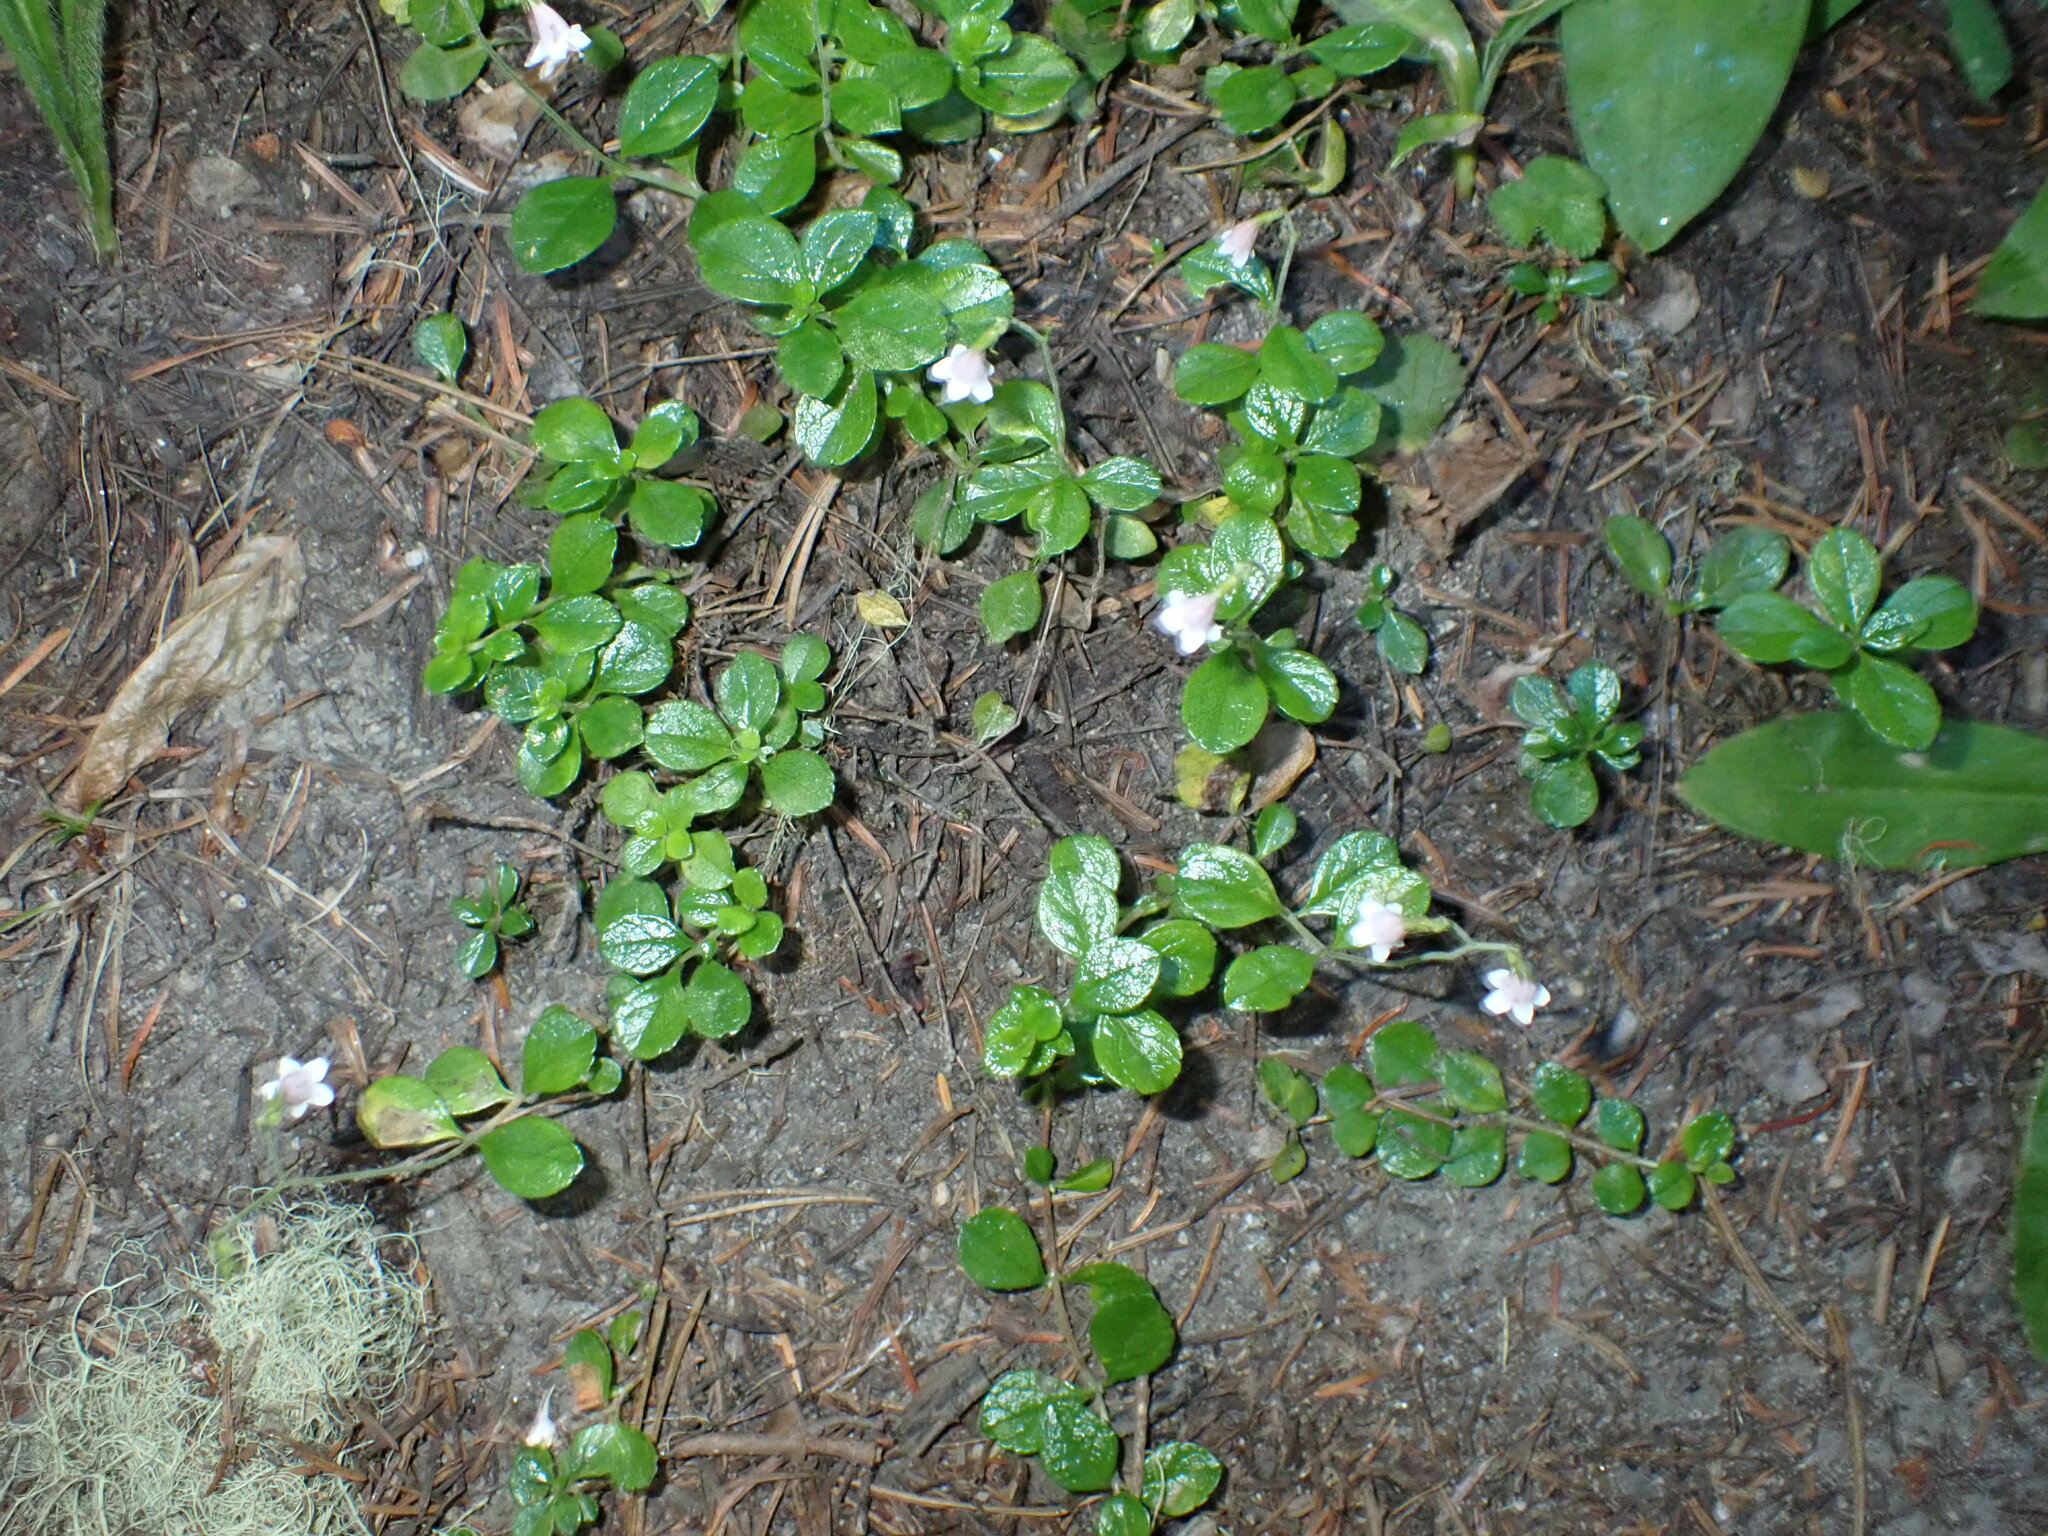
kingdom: Plantae
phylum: Tracheophyta
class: Magnoliopsida
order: Dipsacales
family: Caprifoliaceae
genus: Linnaea
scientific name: Linnaea borealis
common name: Twinflower
